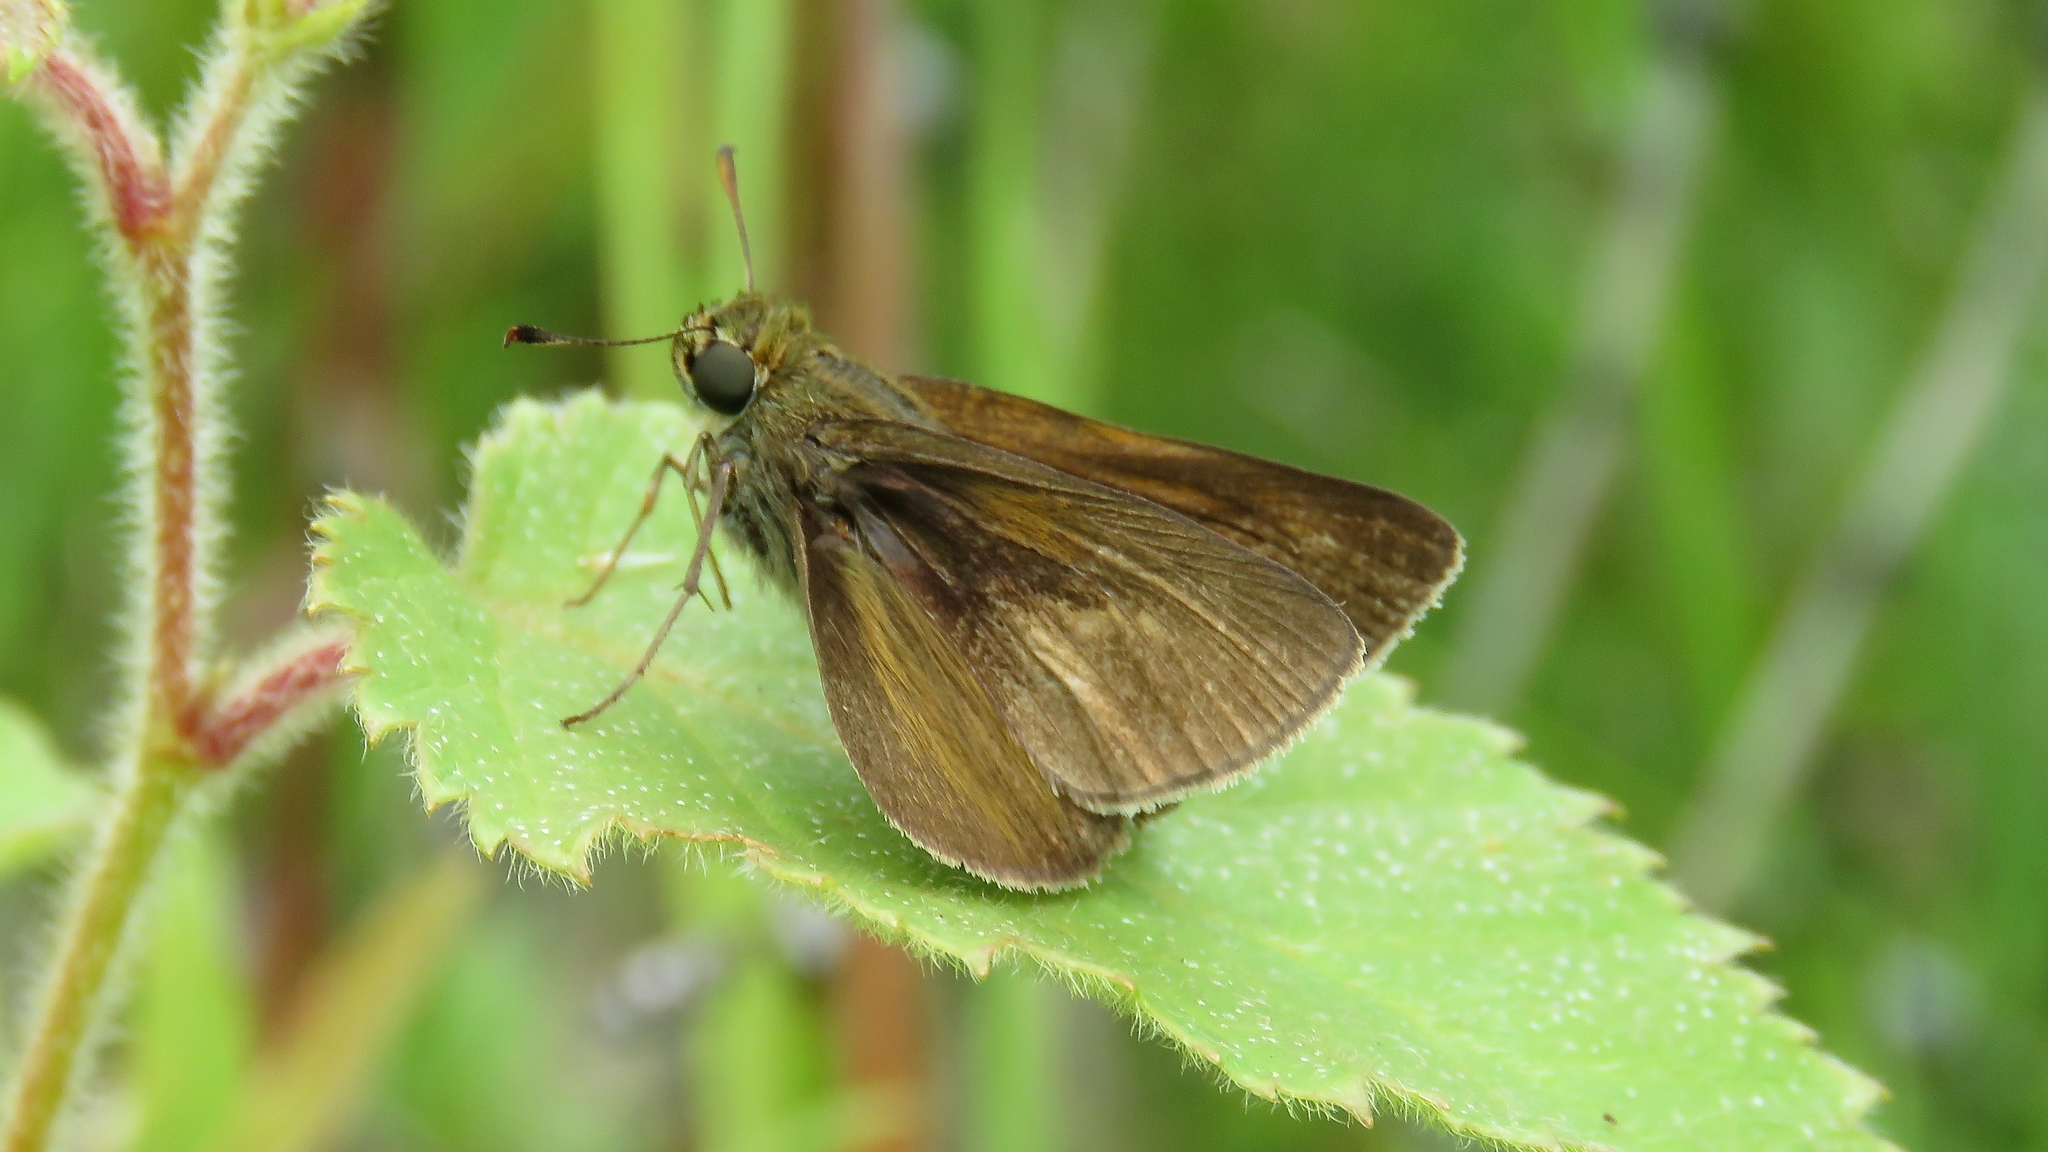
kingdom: Animalia
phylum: Arthropoda
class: Insecta
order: Lepidoptera
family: Hesperiidae
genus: Euphyes
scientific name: Euphyes vestris
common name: Dun skipper
